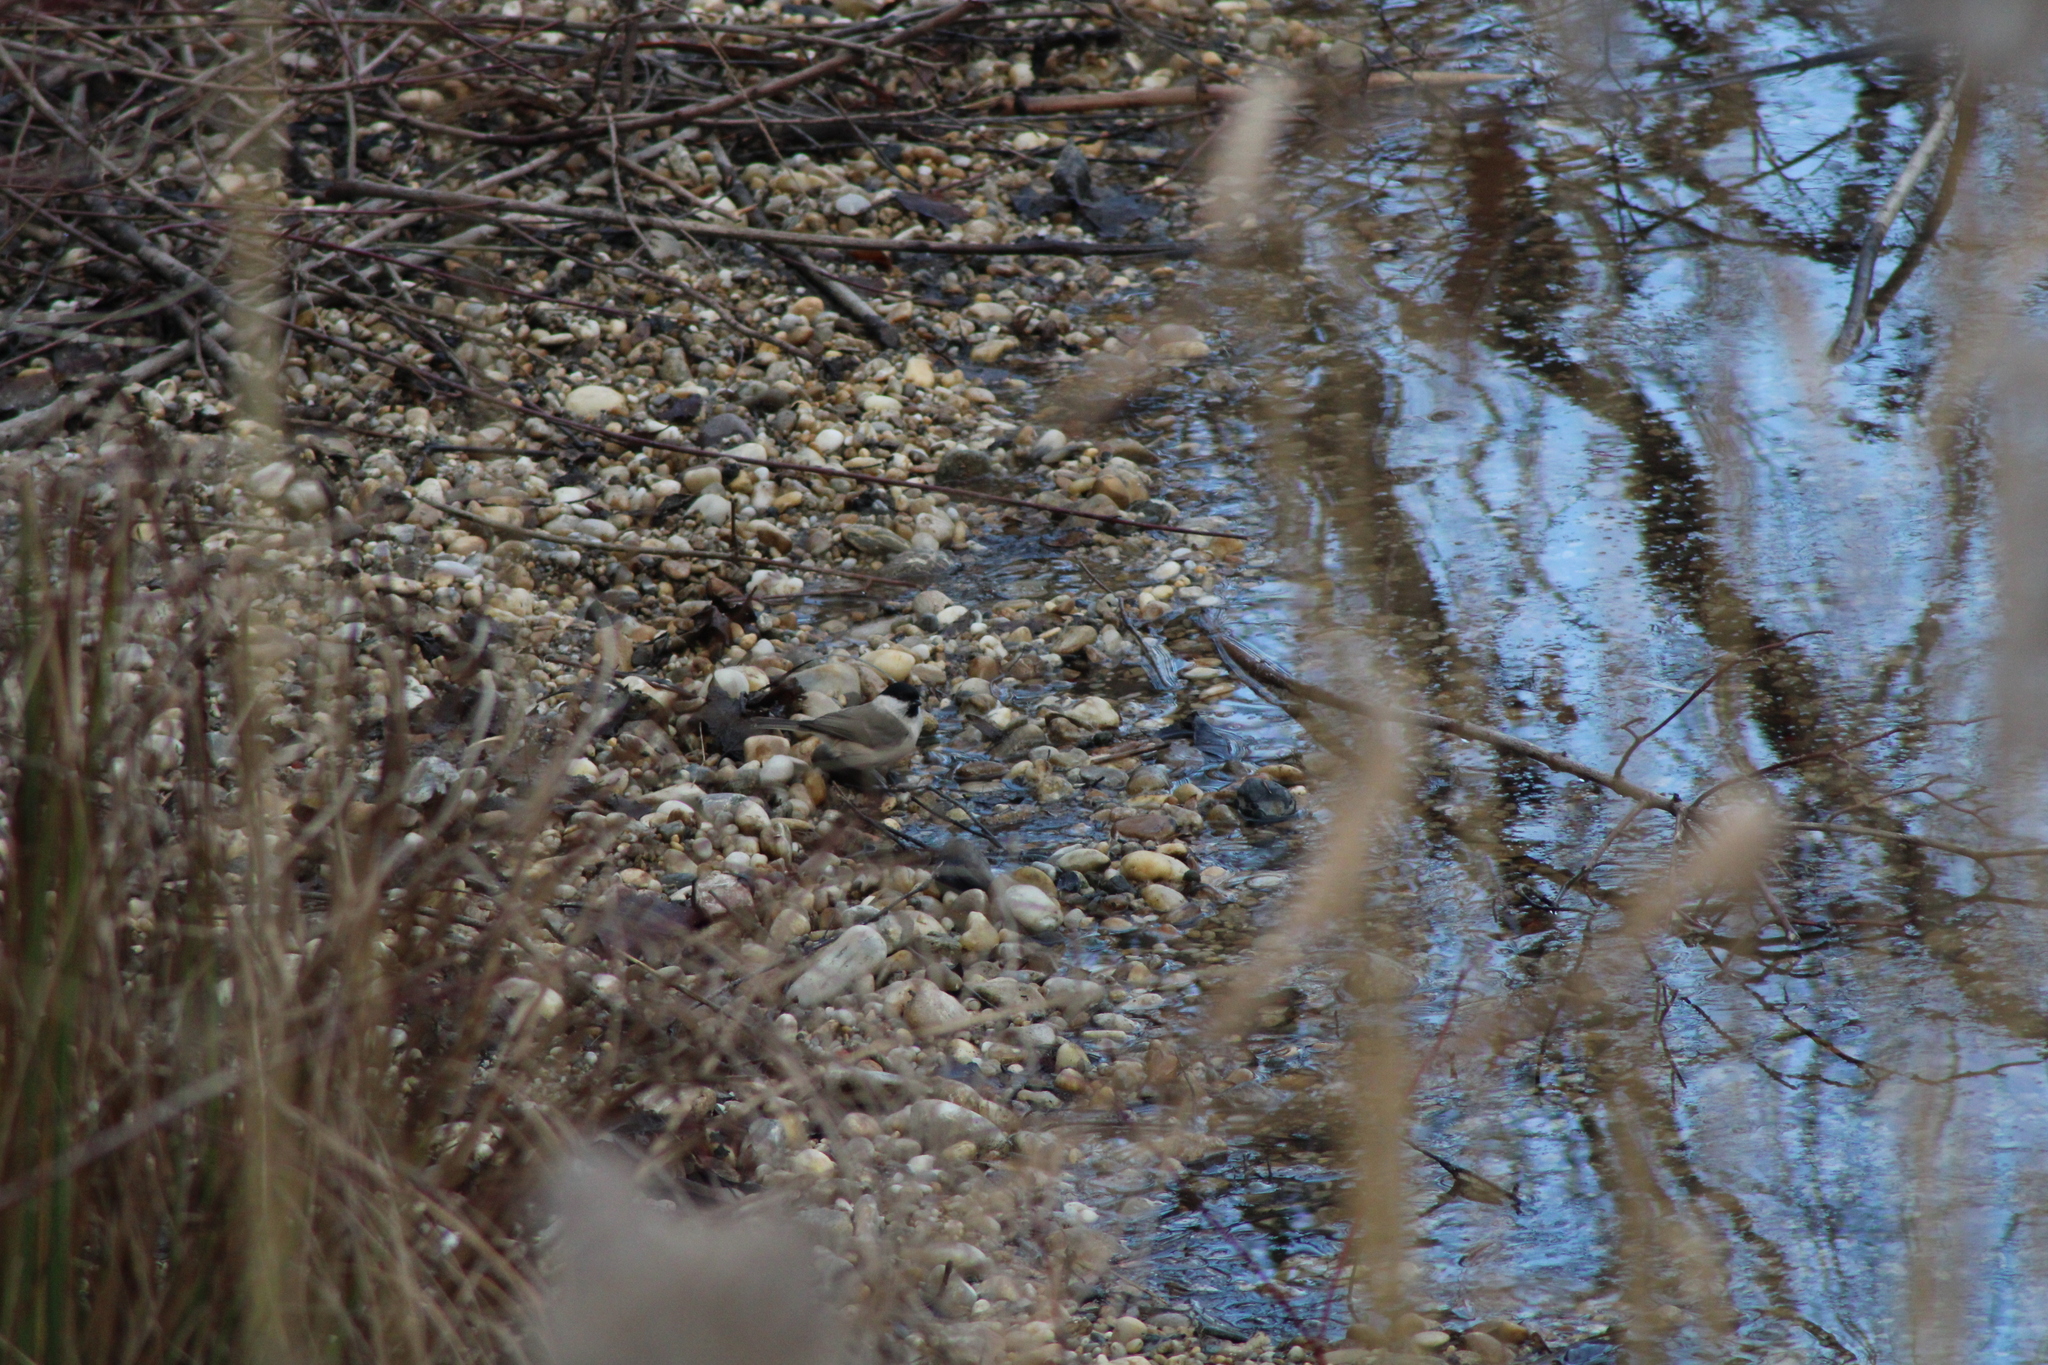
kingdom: Animalia
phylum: Chordata
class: Aves
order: Passeriformes
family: Paridae
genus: Poecile
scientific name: Poecile palustris
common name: Marsh tit
